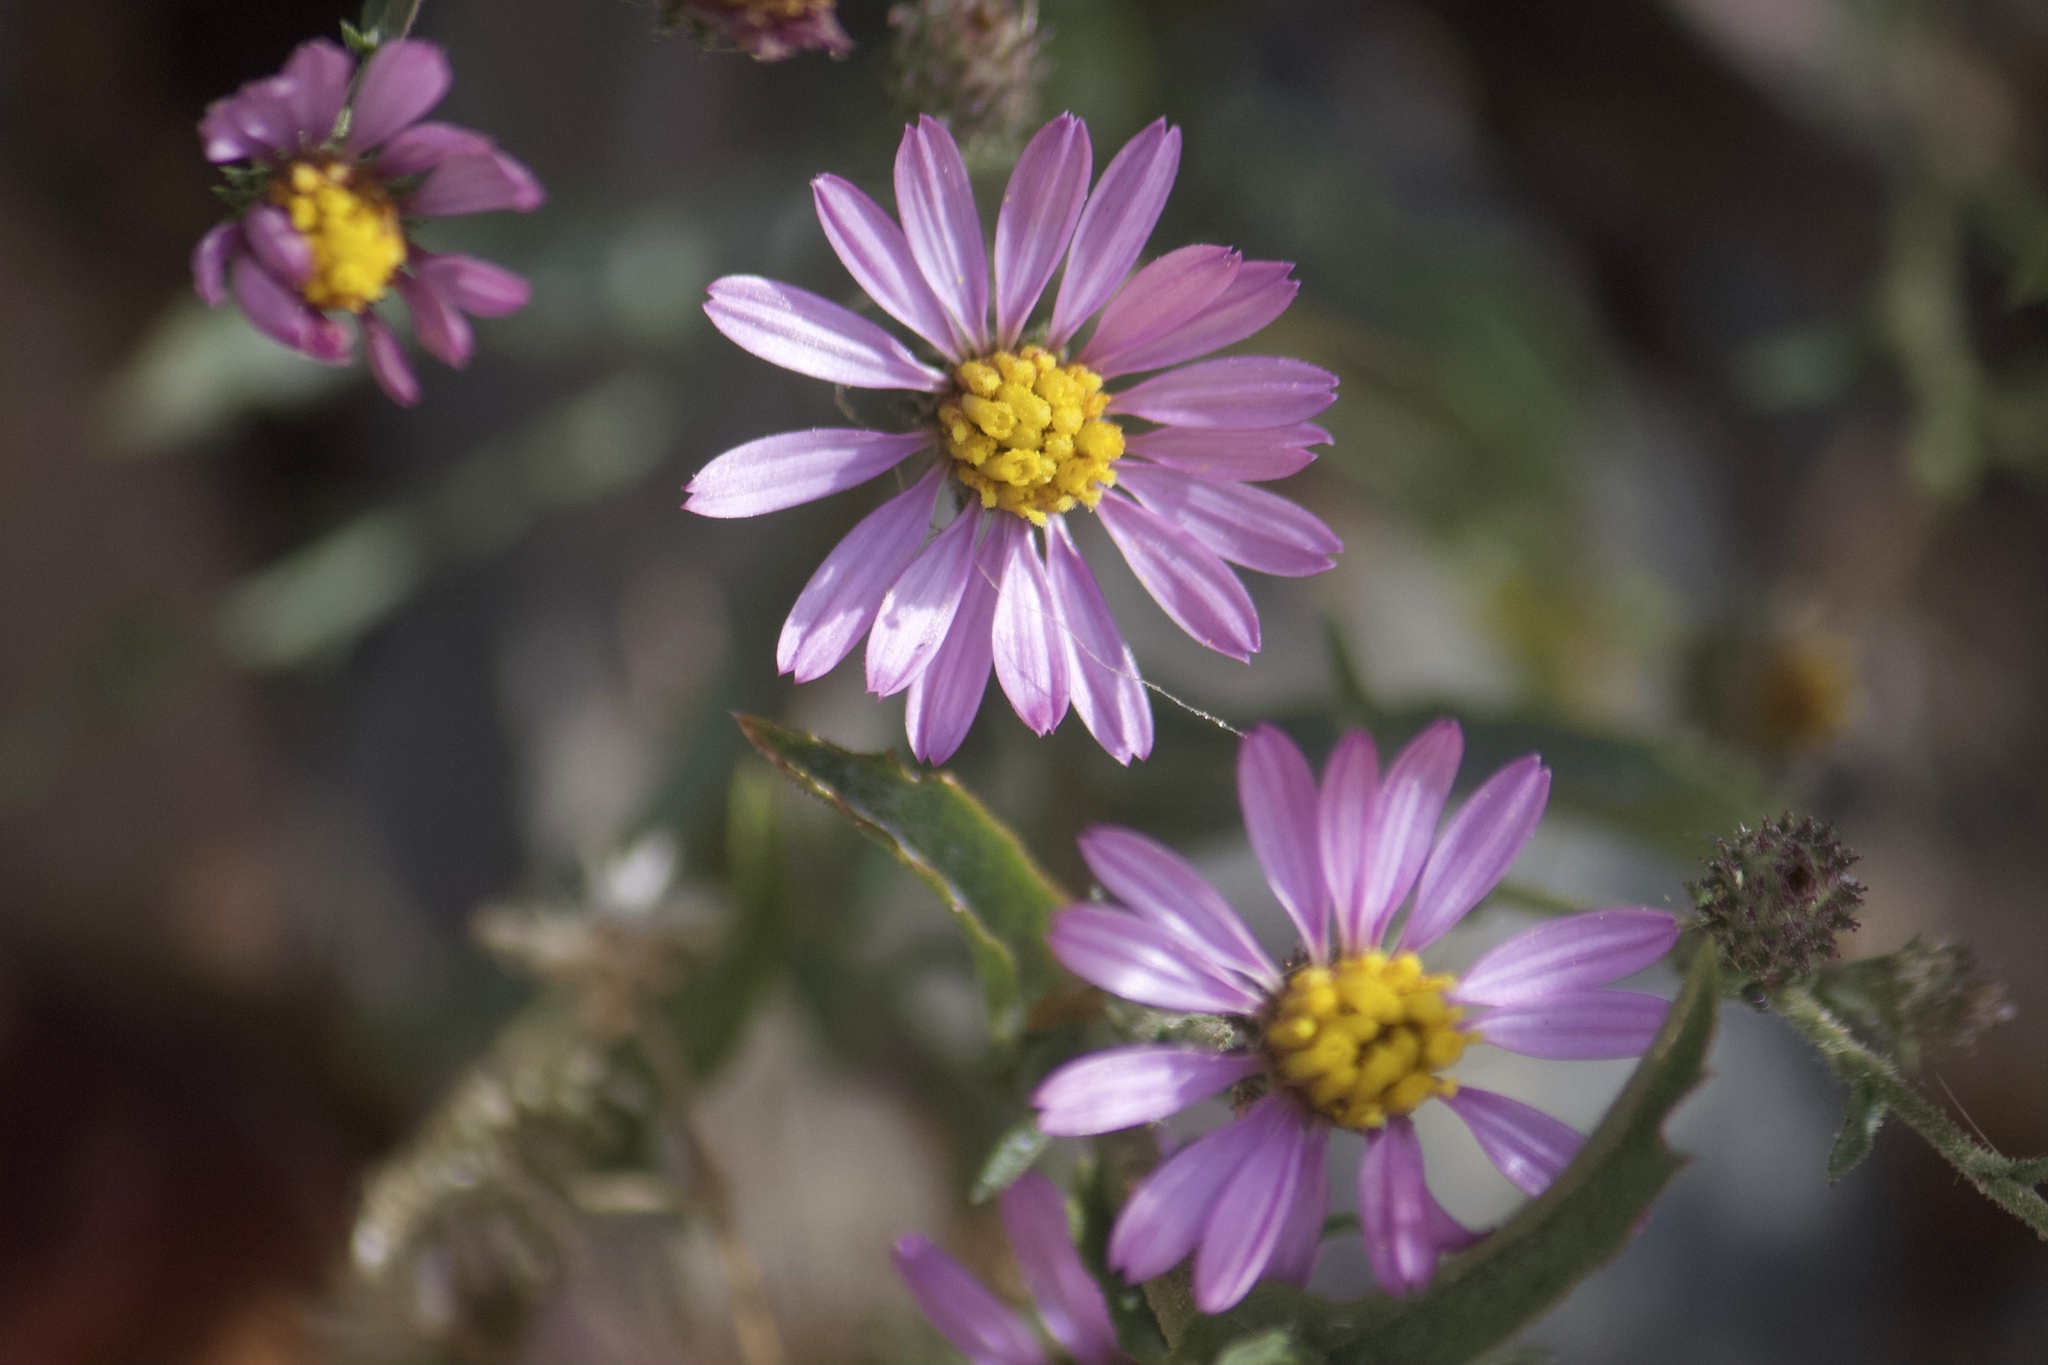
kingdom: Plantae
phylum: Tracheophyta
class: Magnoliopsida
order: Asterales
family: Asteraceae
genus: Corethrogyne
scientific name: Corethrogyne filaginifolia
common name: Sand-aster
